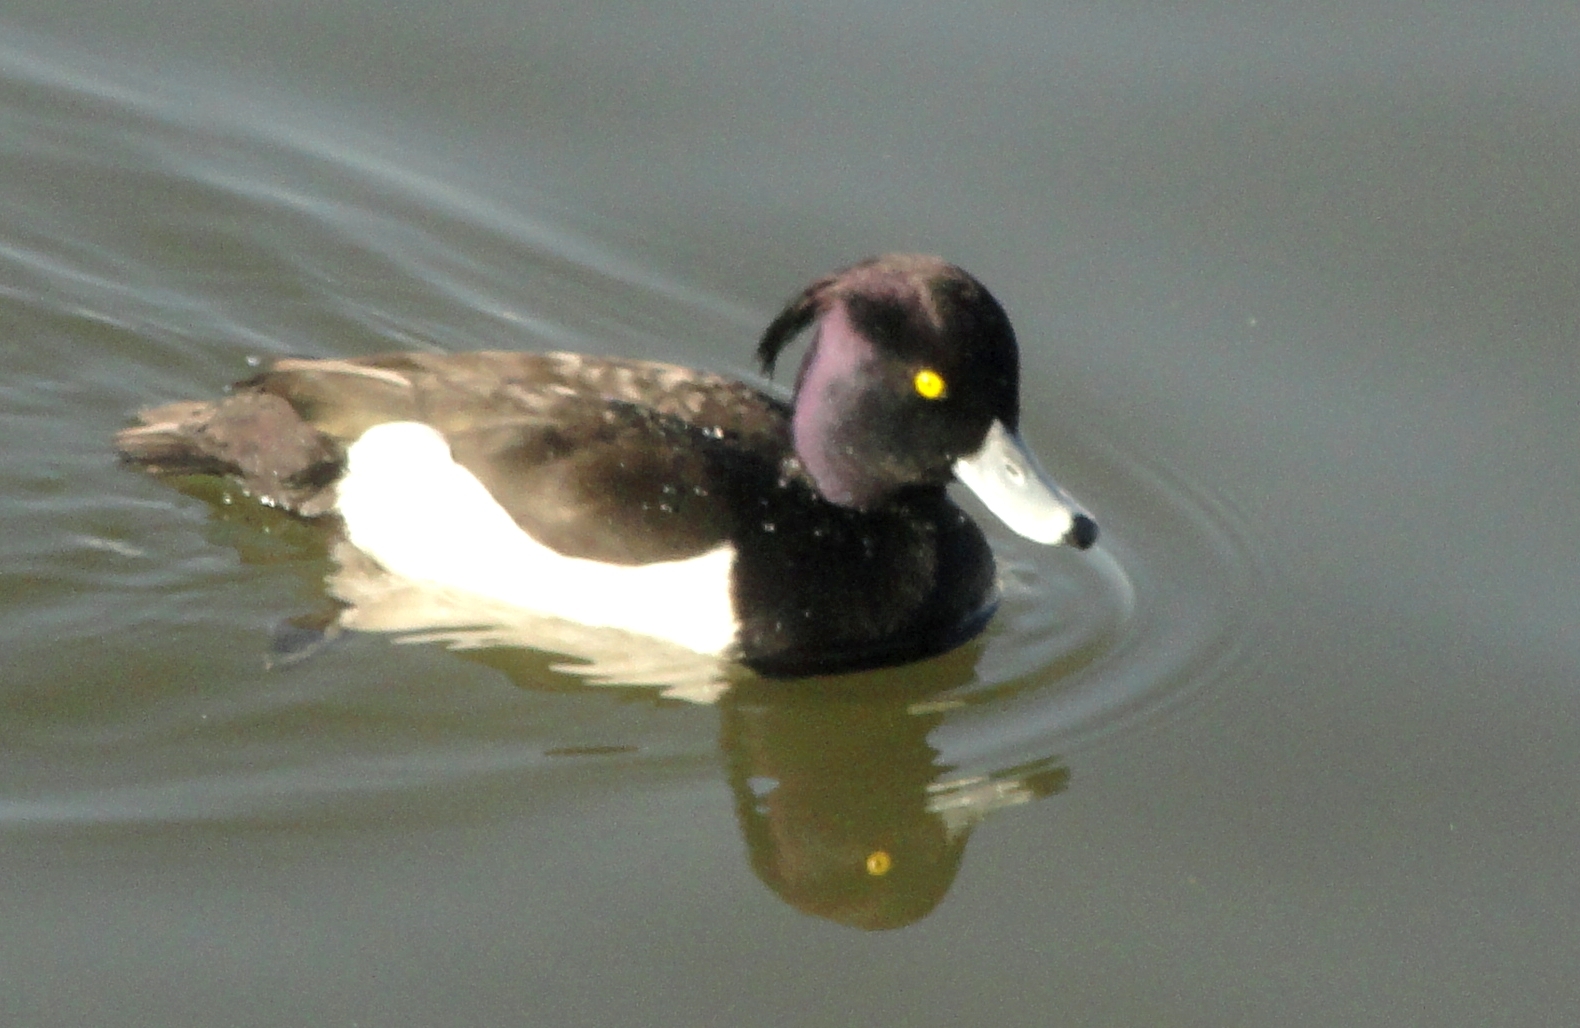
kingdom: Animalia
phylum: Chordata
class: Aves
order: Anseriformes
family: Anatidae
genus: Aythya
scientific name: Aythya fuligula
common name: Tufted duck
